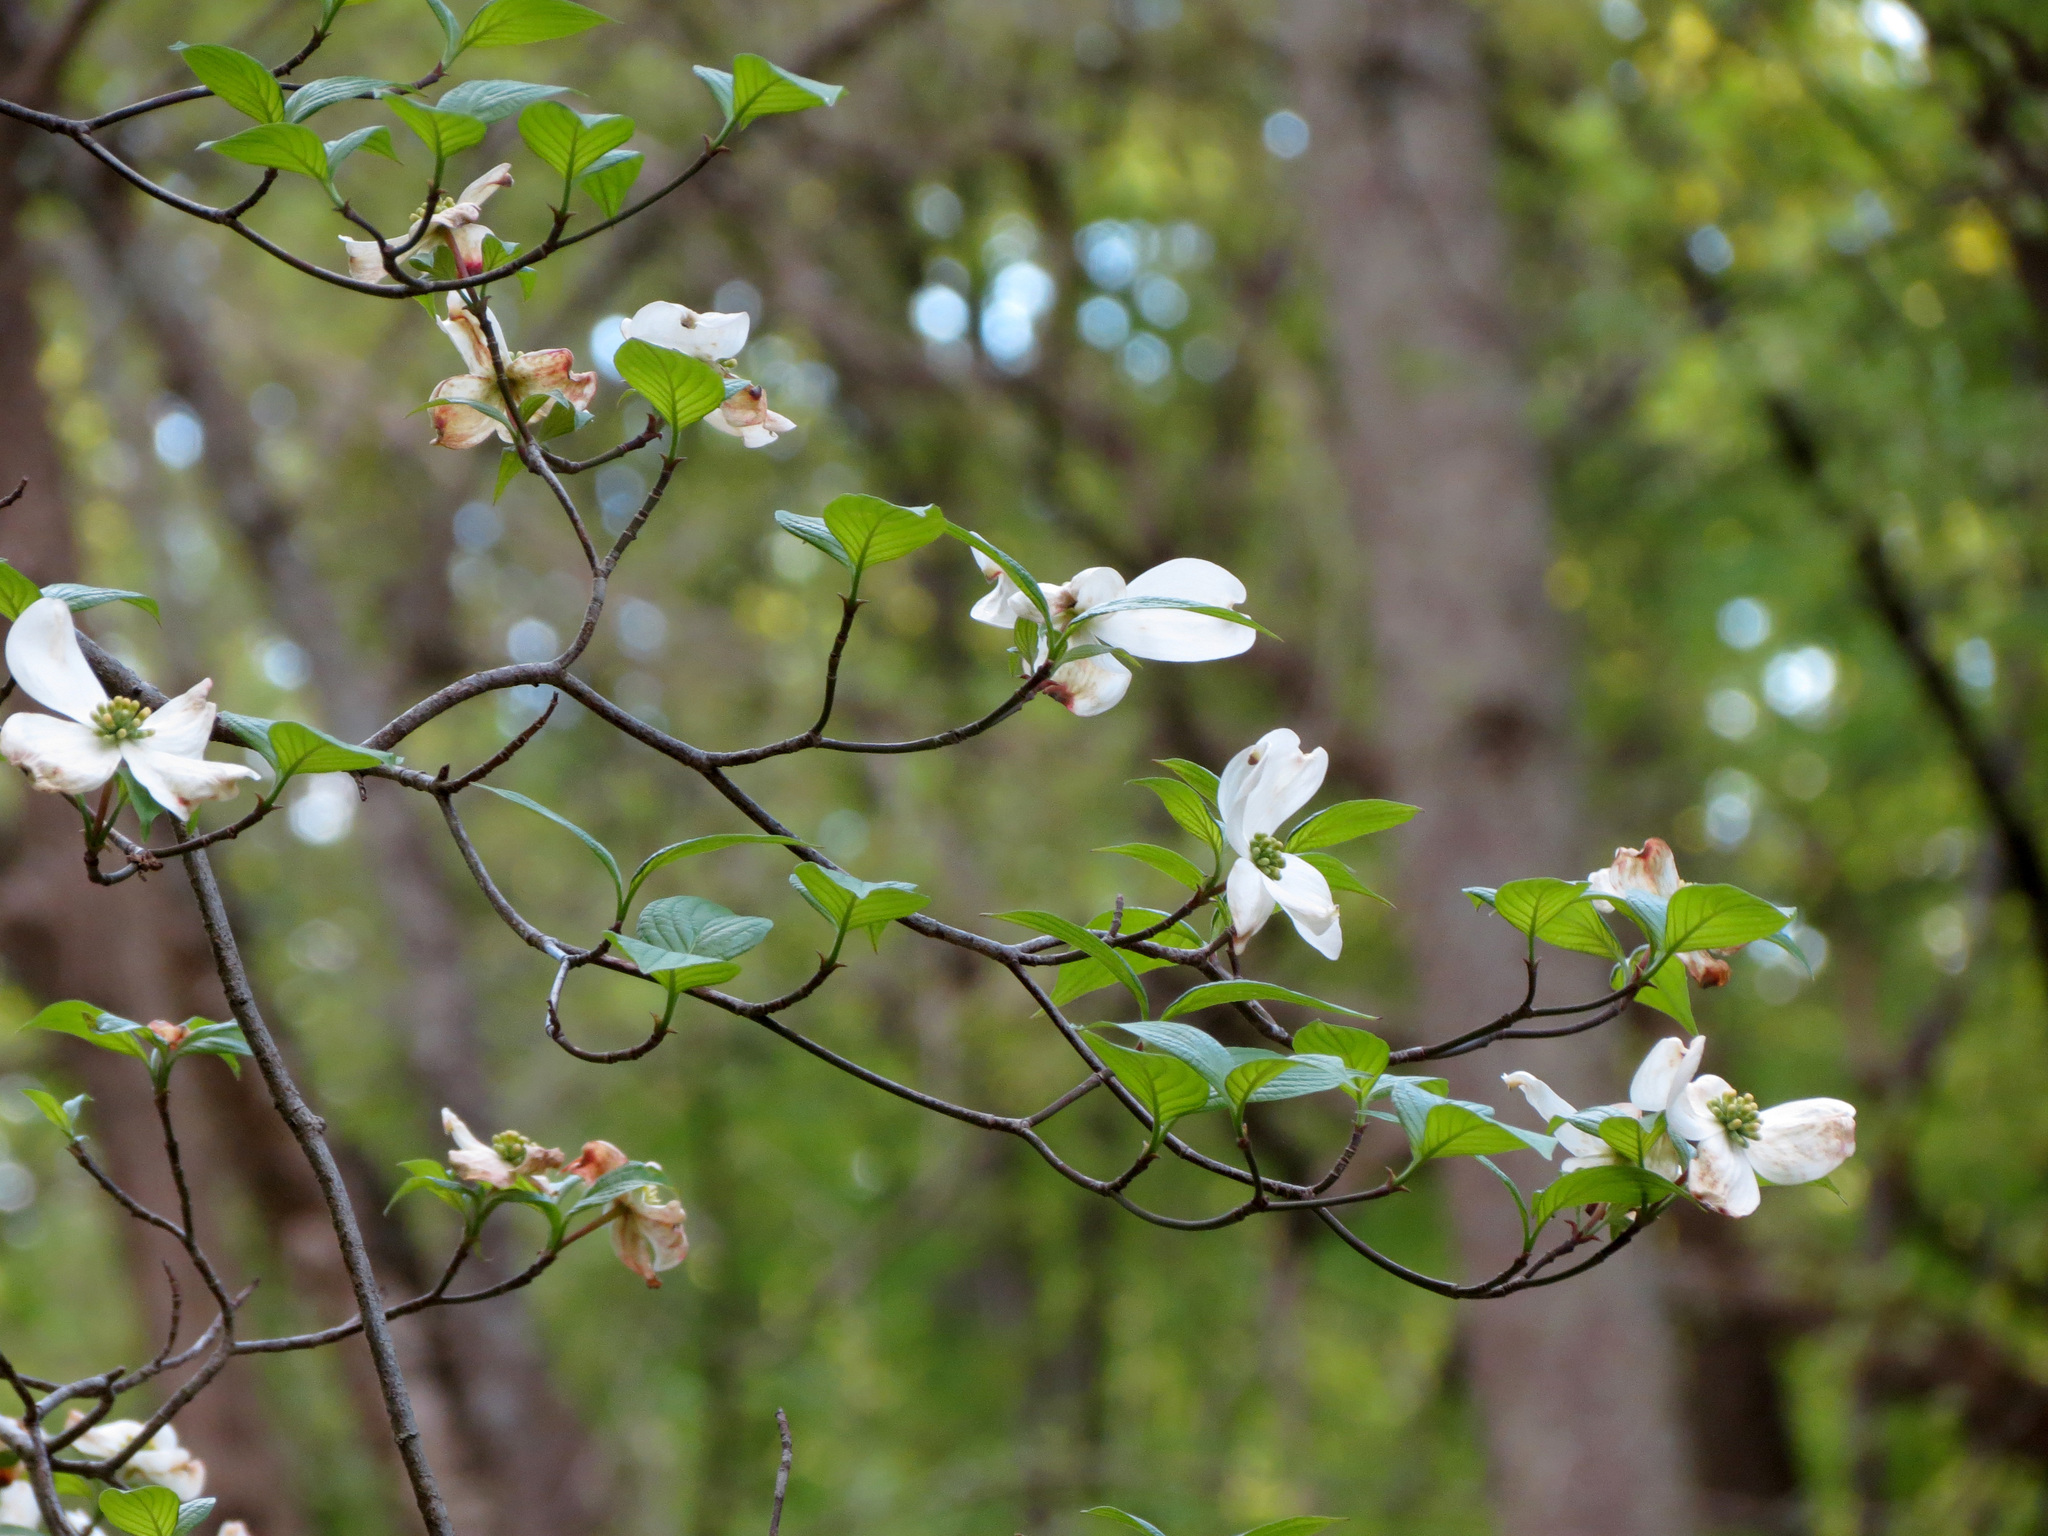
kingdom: Plantae
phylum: Tracheophyta
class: Magnoliopsida
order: Cornales
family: Cornaceae
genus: Cornus
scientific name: Cornus florida
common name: Flowering dogwood
